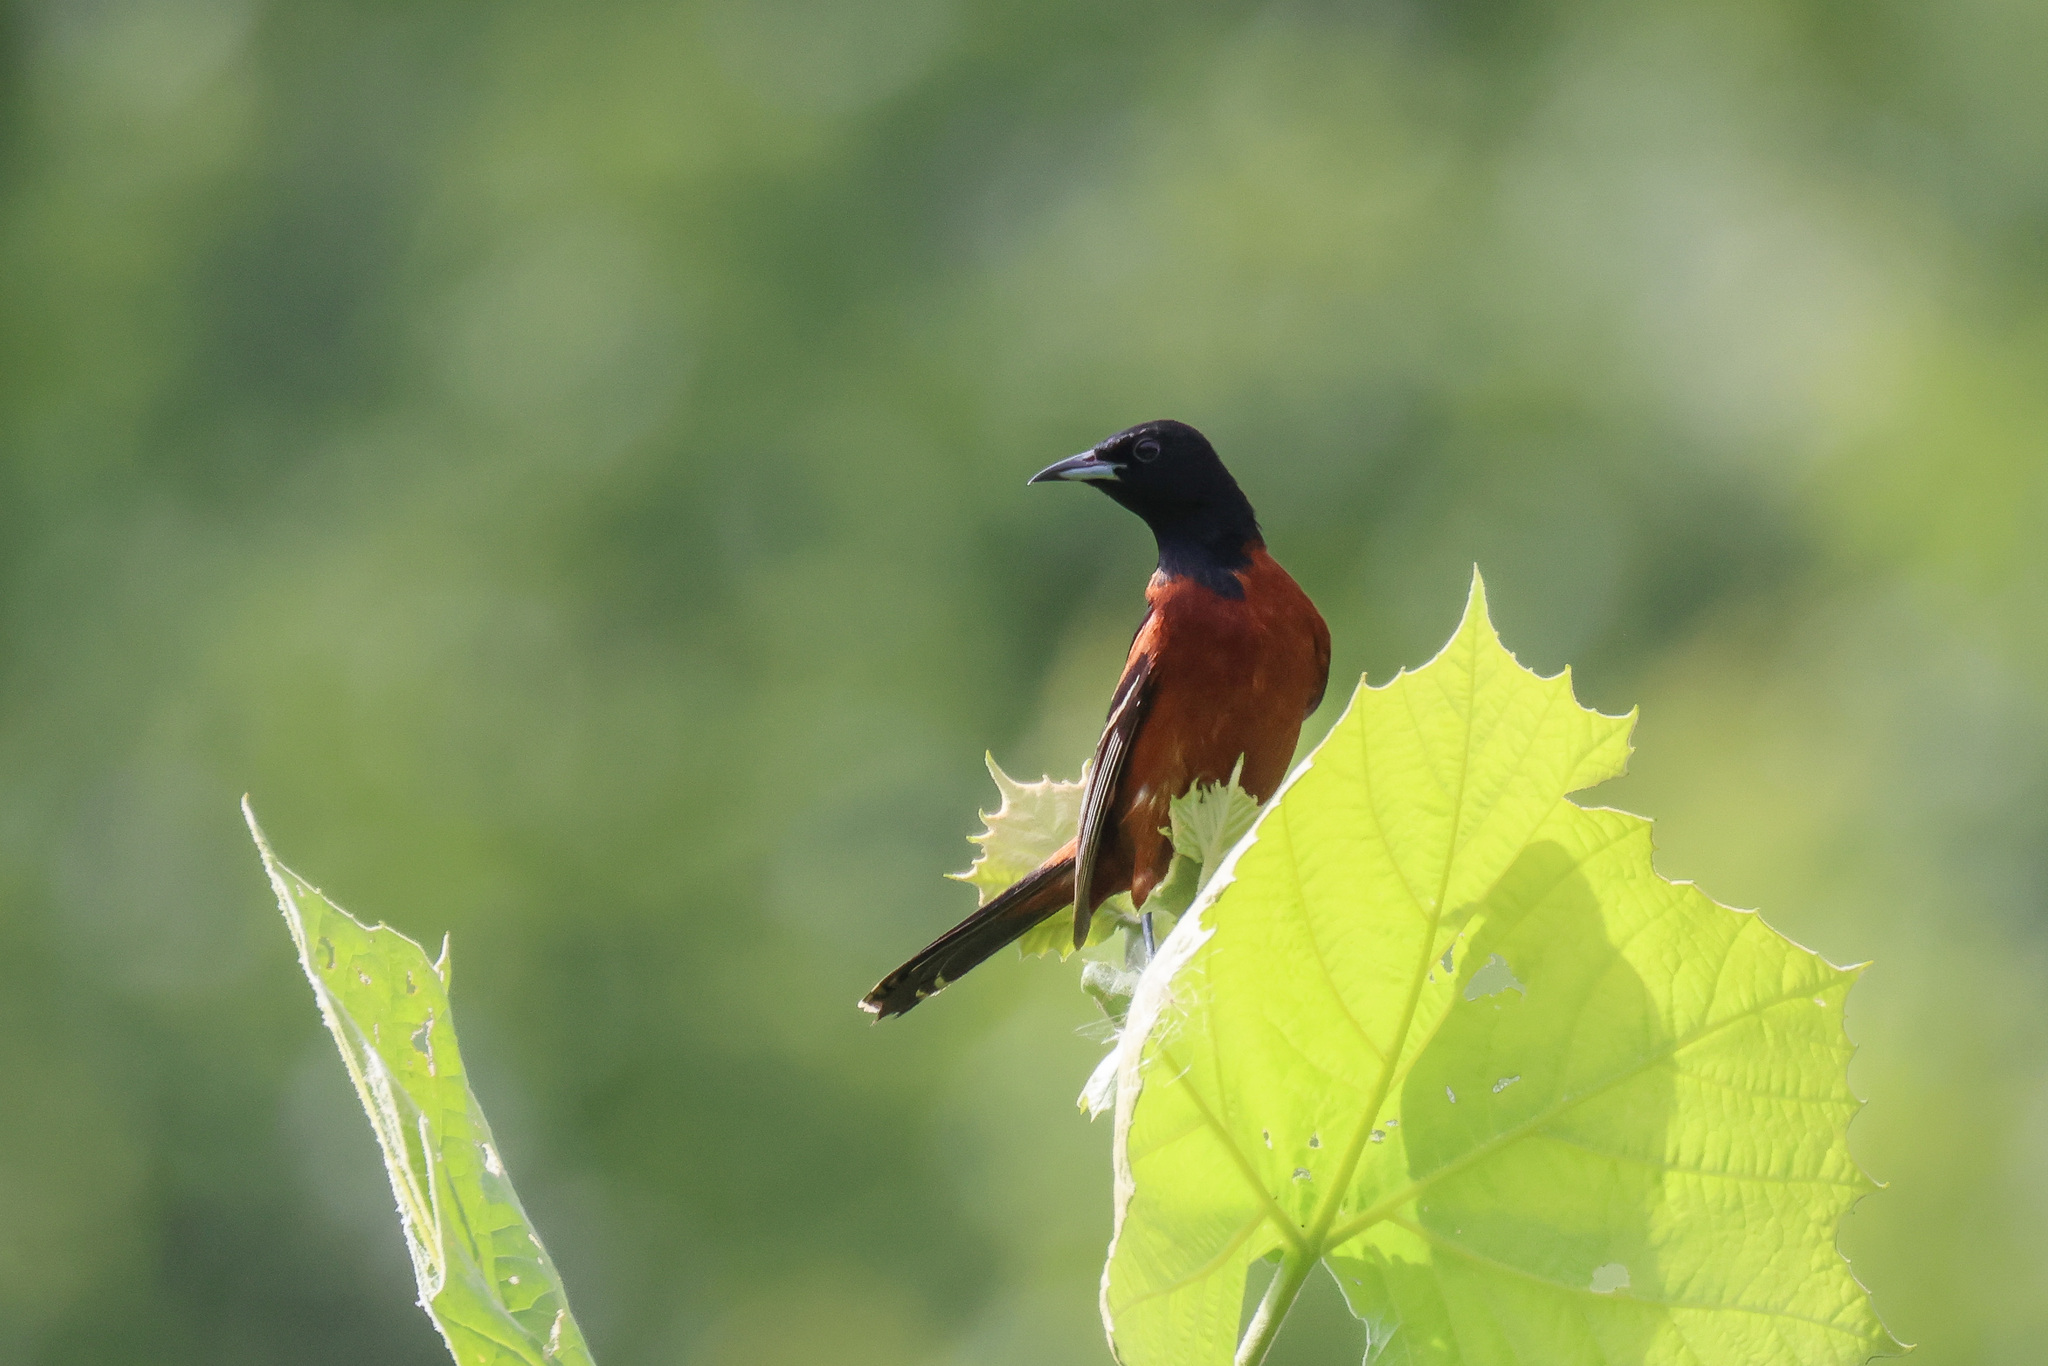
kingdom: Animalia
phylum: Chordata
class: Aves
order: Passeriformes
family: Icteridae
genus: Icterus
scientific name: Icterus spurius
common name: Orchard oriole
